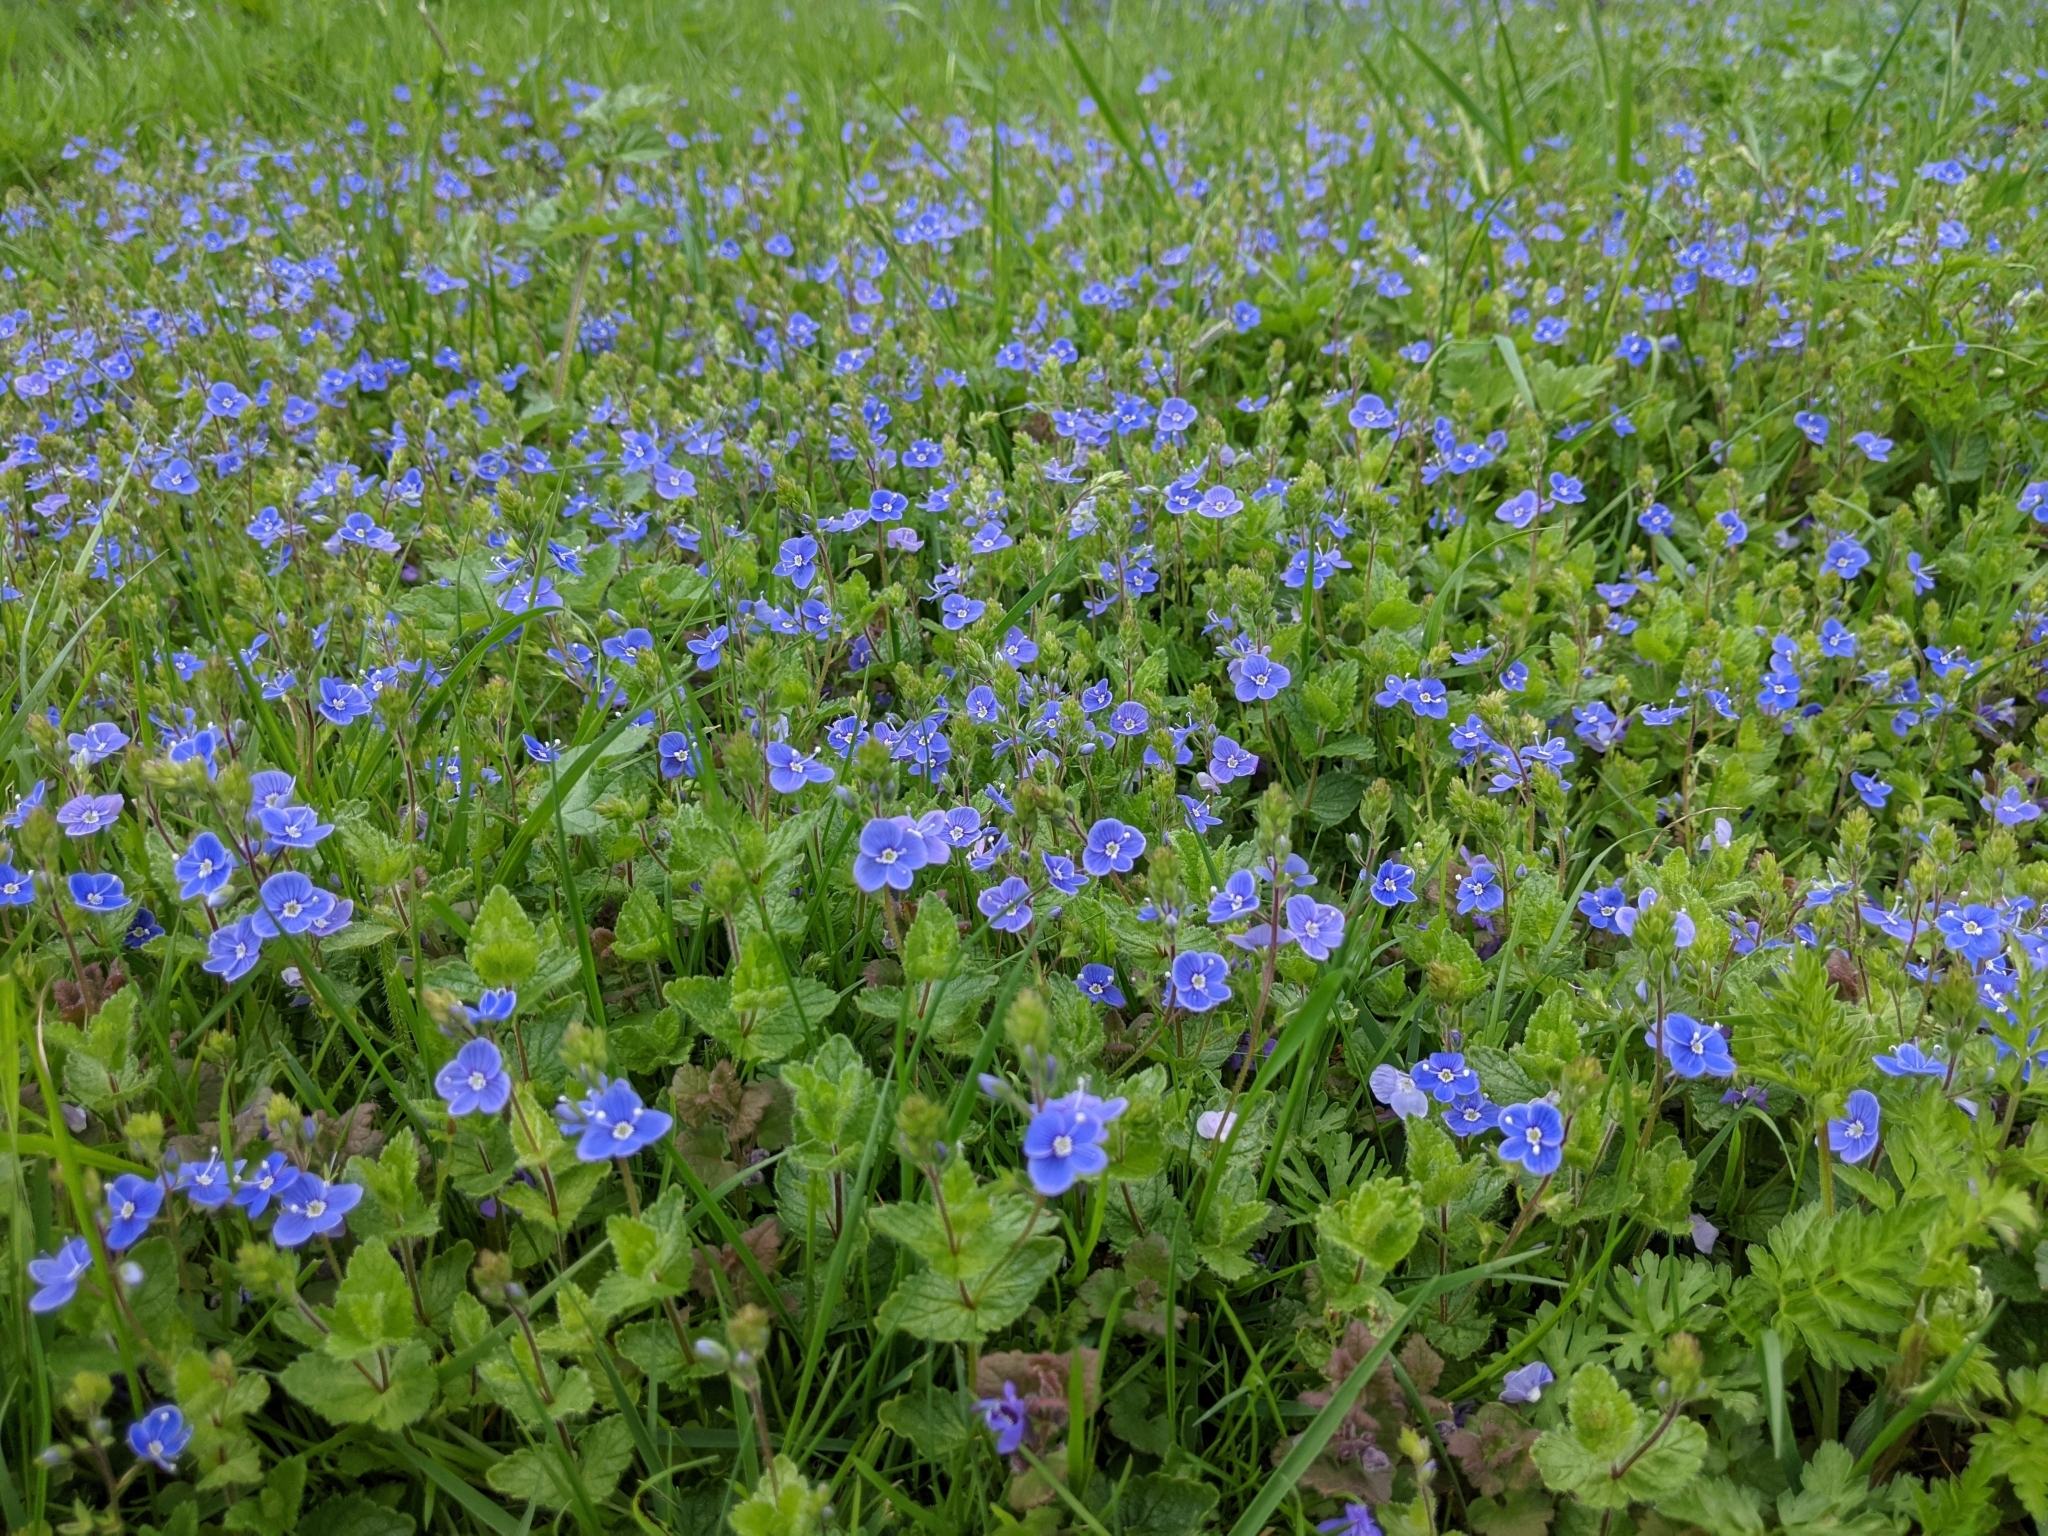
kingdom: Plantae
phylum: Tracheophyta
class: Magnoliopsida
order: Lamiales
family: Plantaginaceae
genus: Veronica
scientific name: Veronica chamaedrys
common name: Germander speedwell
